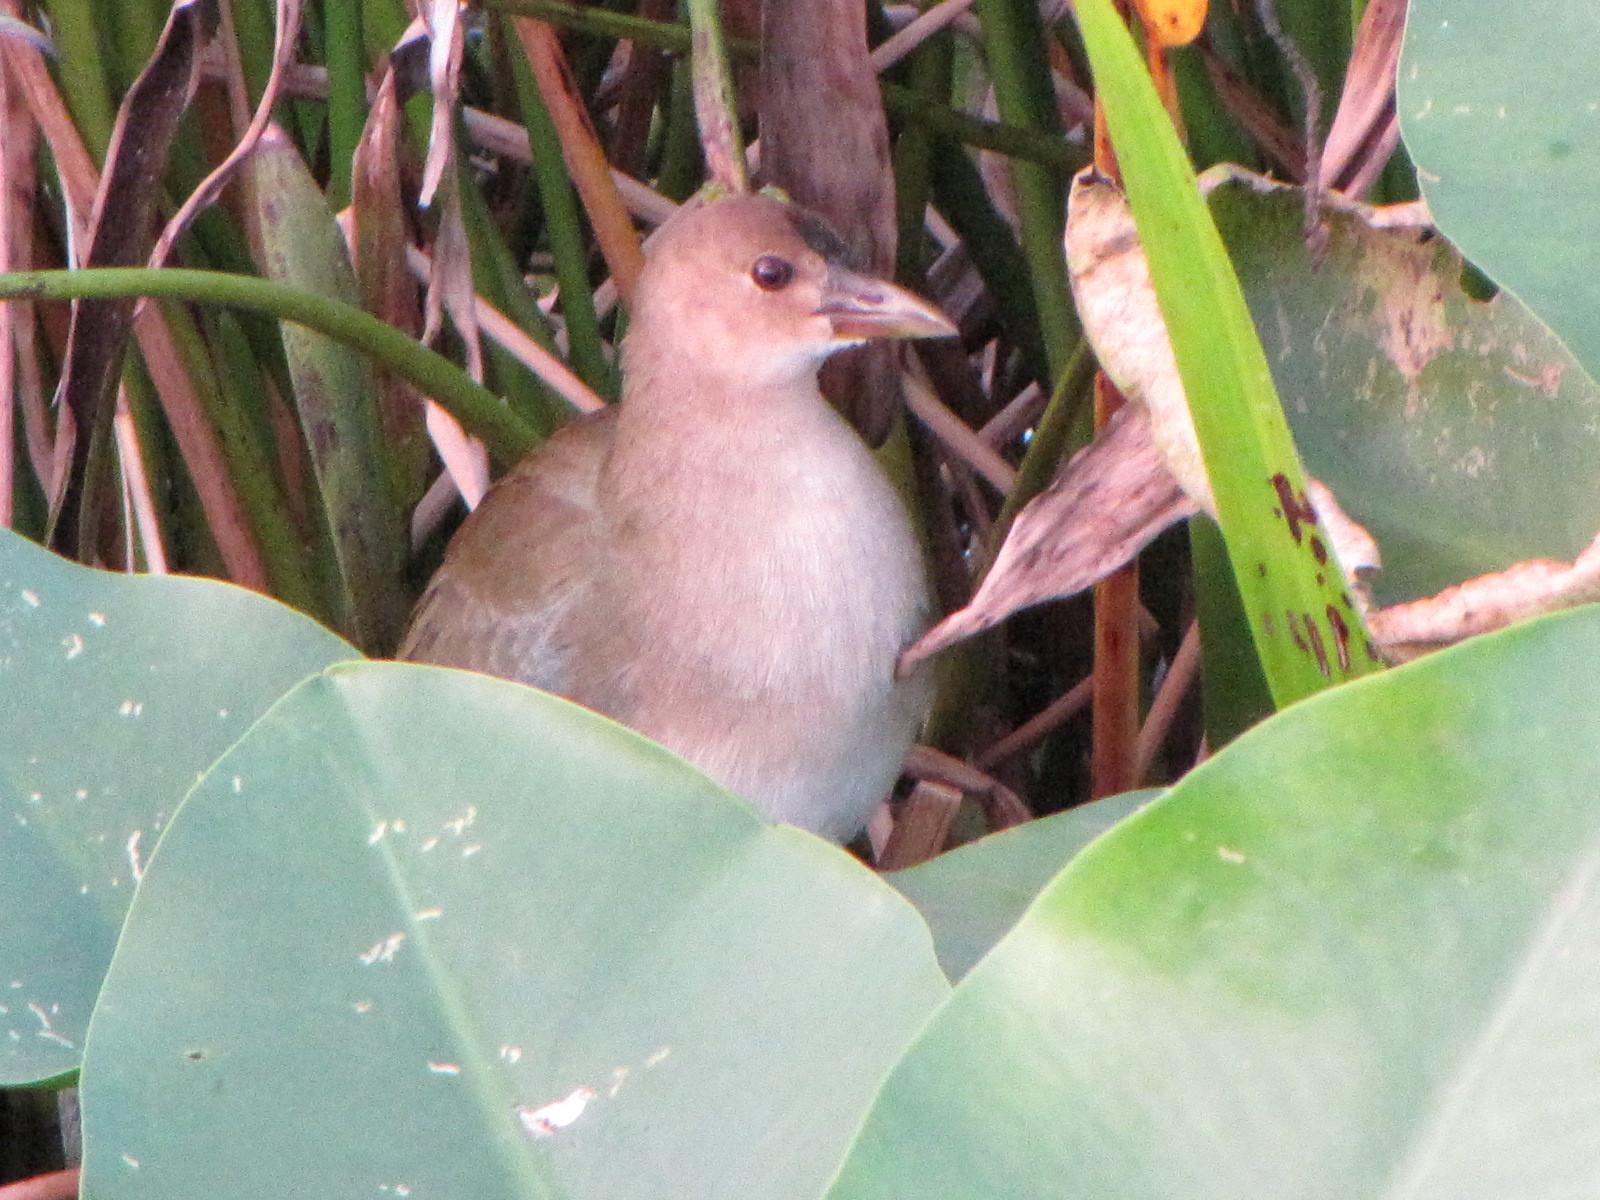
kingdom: Animalia
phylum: Chordata
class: Aves
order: Gruiformes
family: Rallidae
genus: Porphyrio
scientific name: Porphyrio martinica
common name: Purple gallinule
